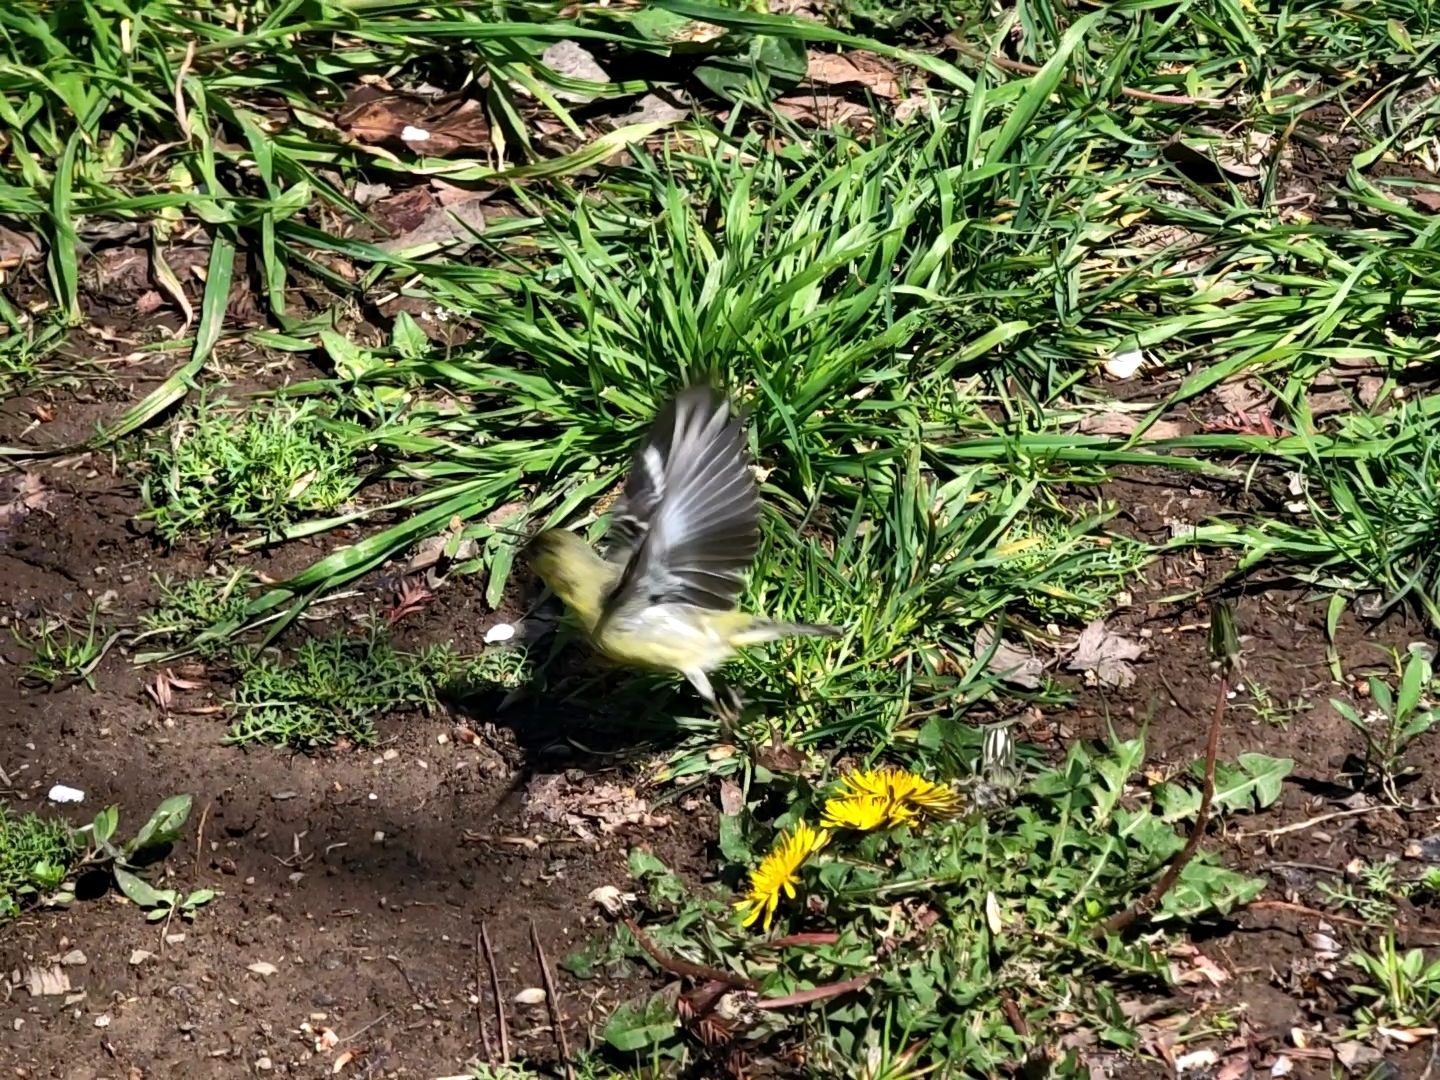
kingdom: Animalia
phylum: Chordata
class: Aves
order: Passeriformes
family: Fringillidae
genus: Spinus
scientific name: Spinus psaltria
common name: Lesser goldfinch
